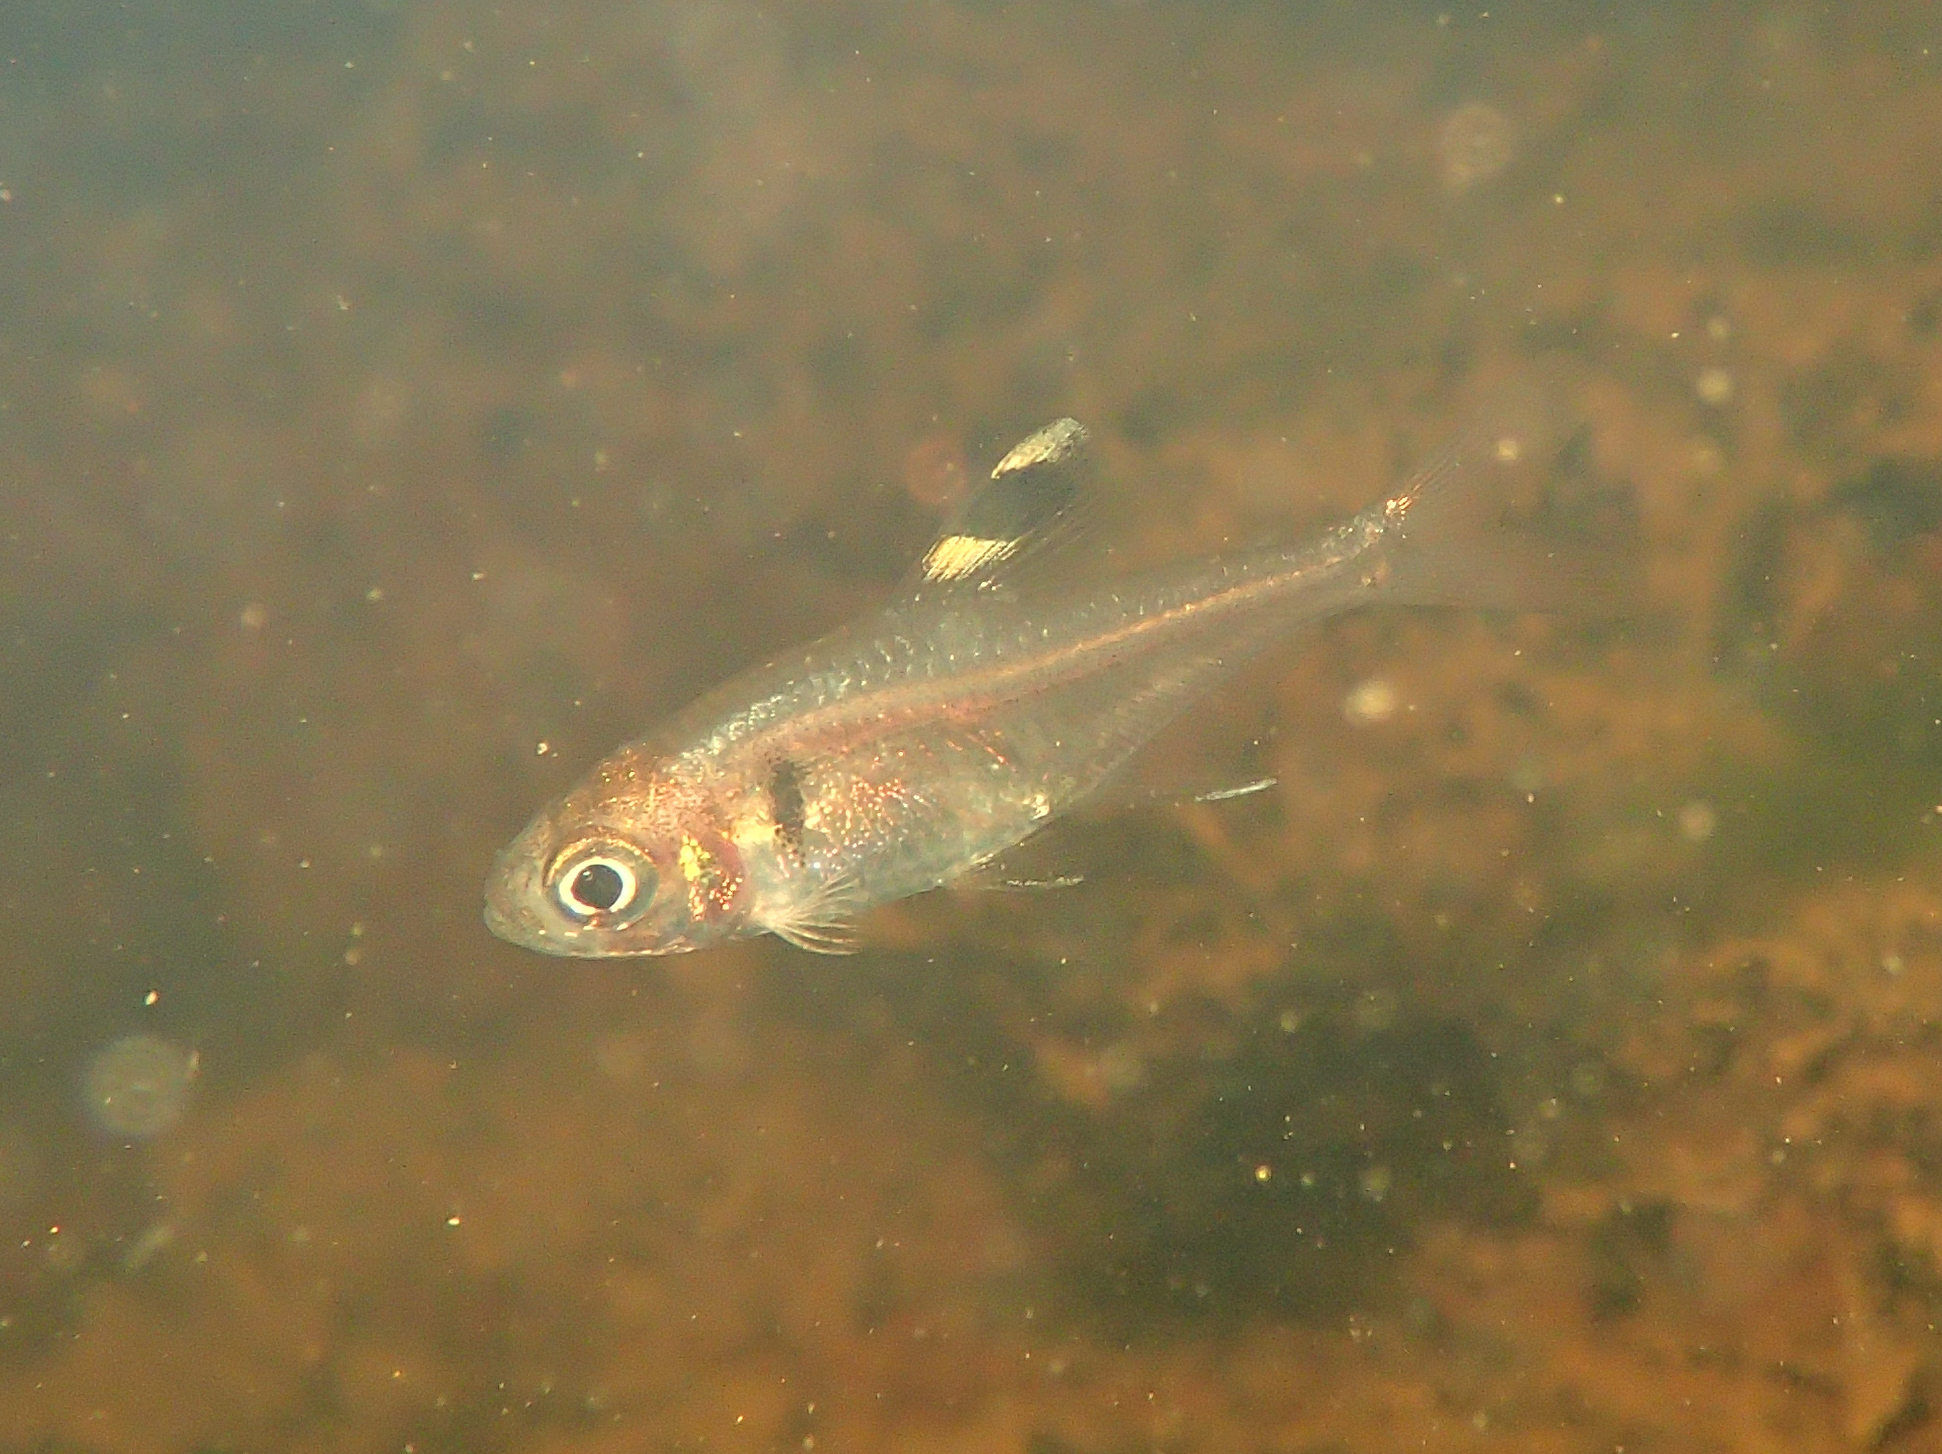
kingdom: Animalia
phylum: Chordata
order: Characiformes
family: Characidae
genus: Hyphessobrycon
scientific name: Hyphessobrycon simulatus
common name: False x-ray tetra
